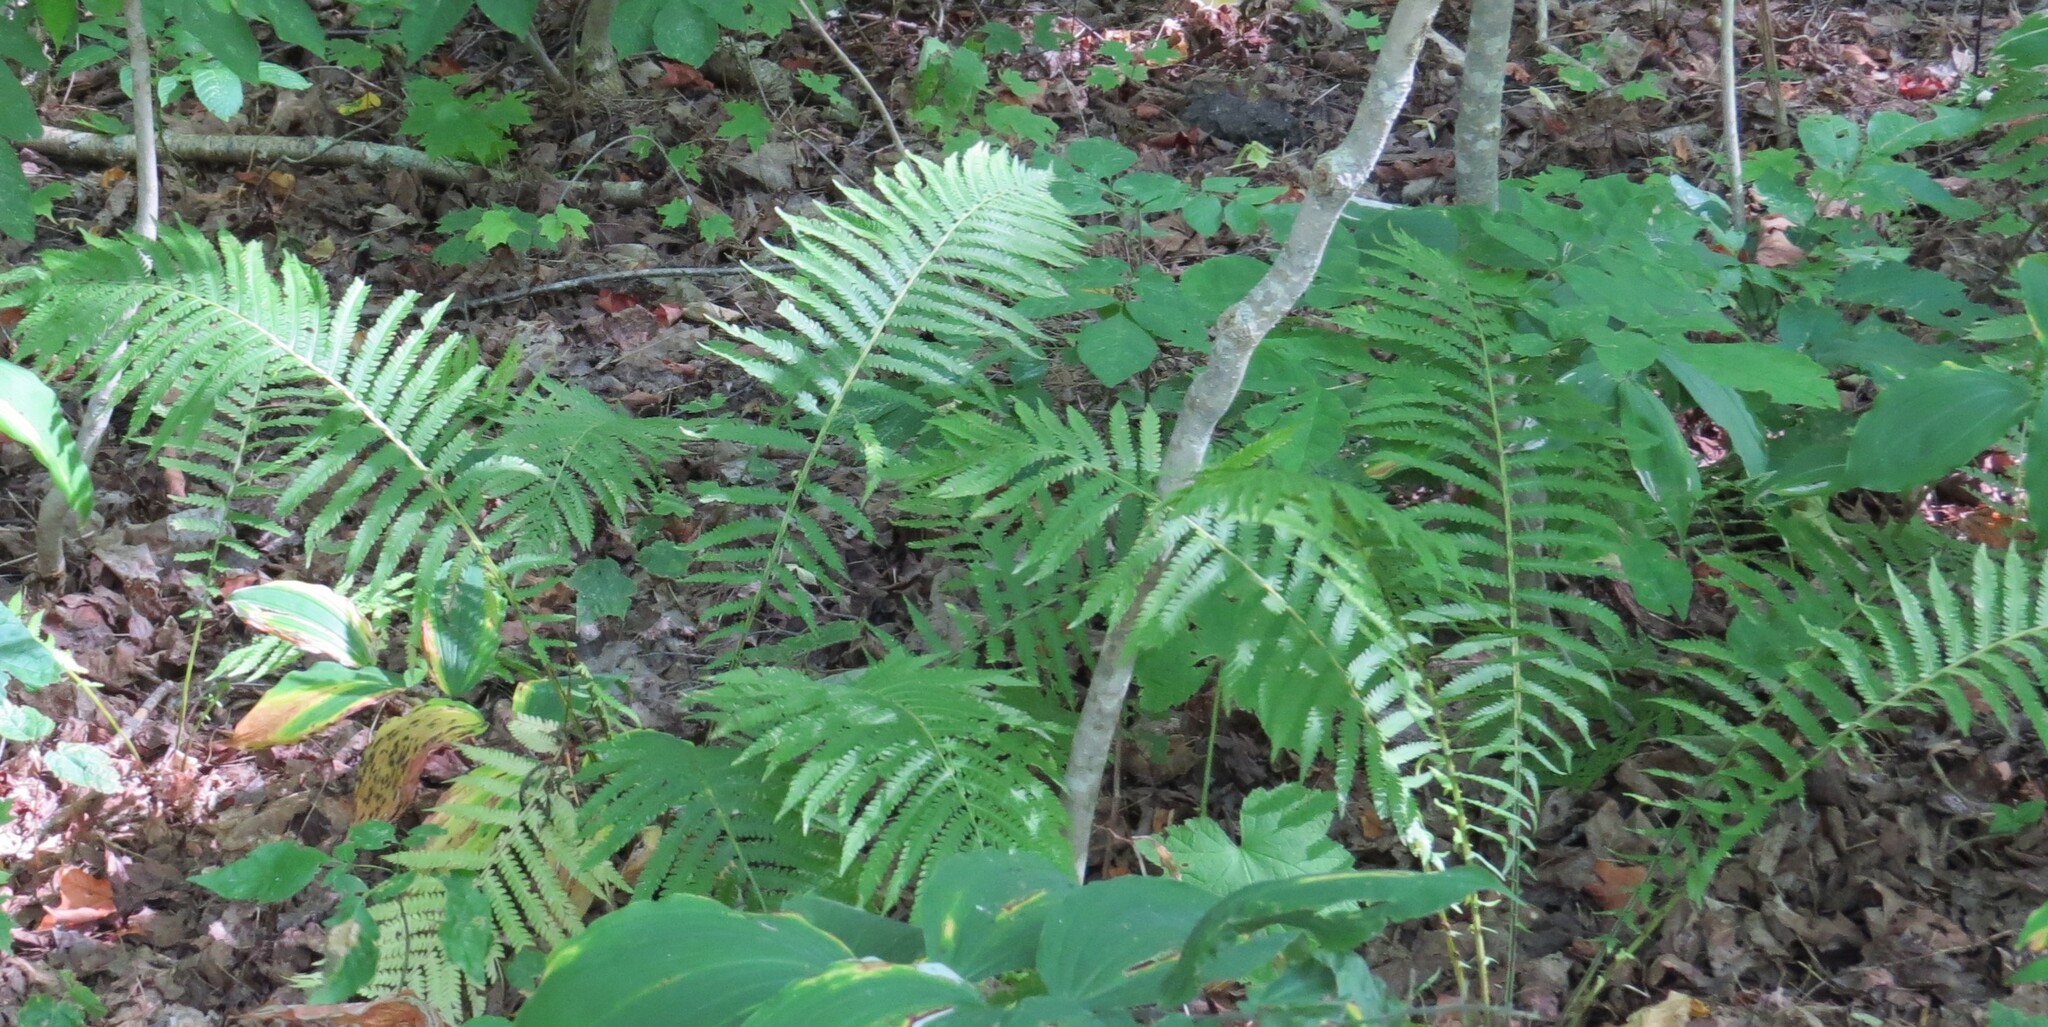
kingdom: Plantae
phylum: Tracheophyta
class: Polypodiopsida
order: Polypodiales
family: Onocleaceae
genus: Matteuccia
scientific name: Matteuccia struthiopteris
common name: Ostrich fern
